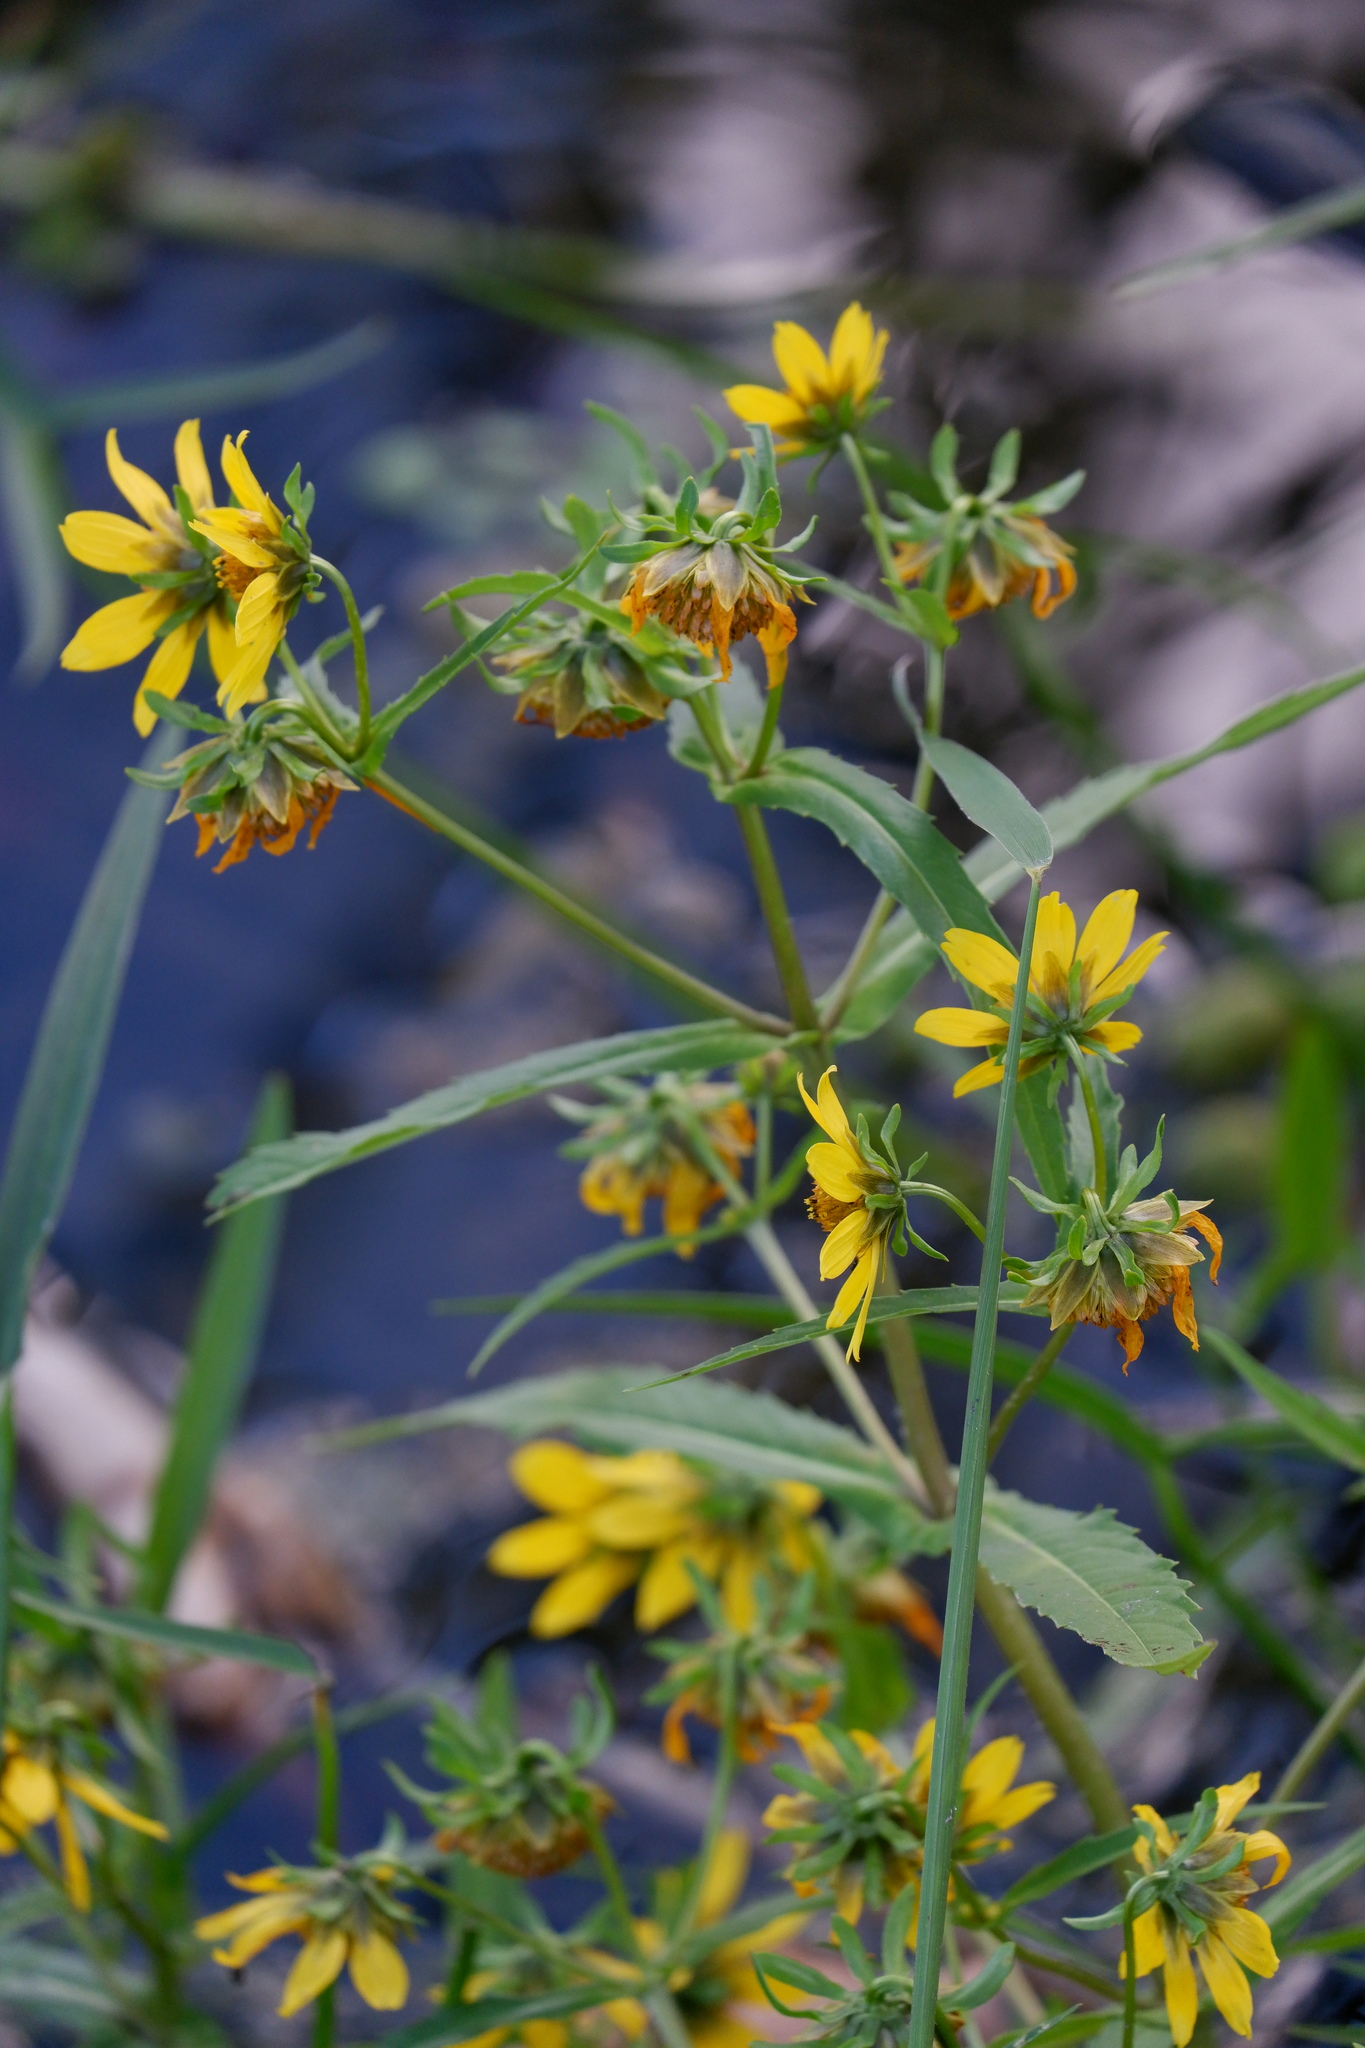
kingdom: Plantae
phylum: Tracheophyta
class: Magnoliopsida
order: Asterales
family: Asteraceae
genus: Bidens
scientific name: Bidens cernua
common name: Nodding bur-marigold
